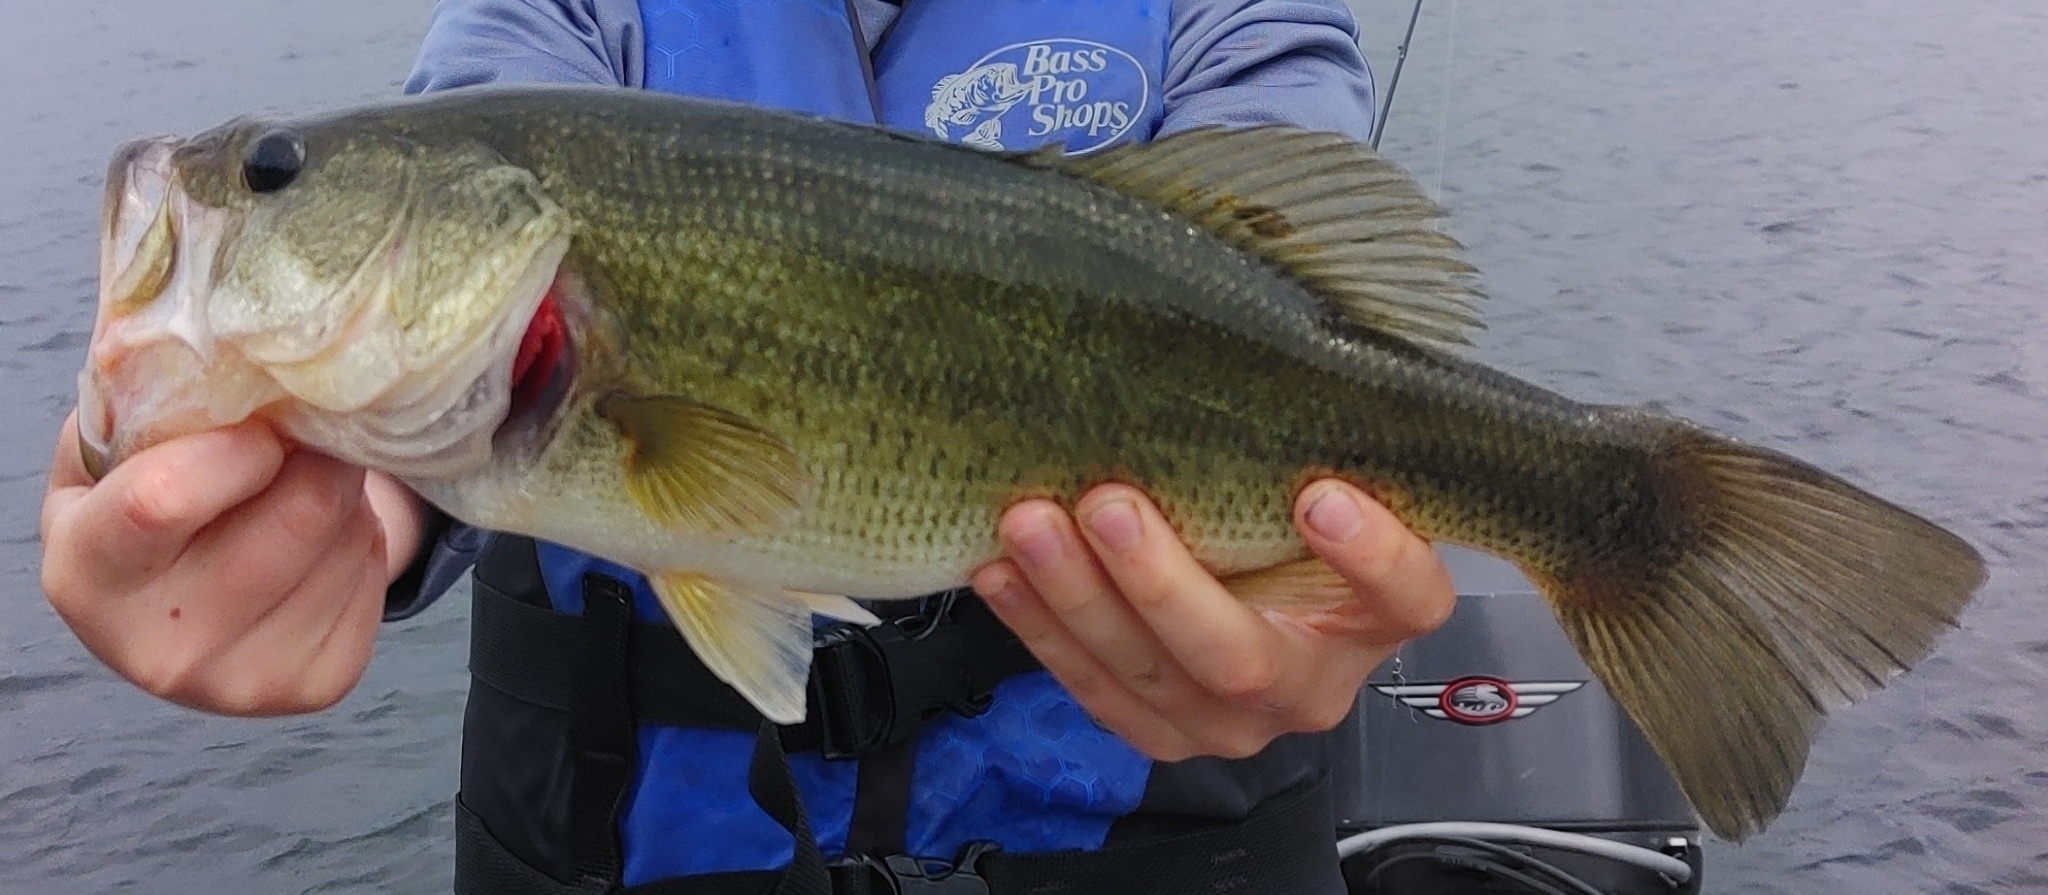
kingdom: Animalia
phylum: Chordata
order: Perciformes
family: Centrarchidae
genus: Micropterus
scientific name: Micropterus
